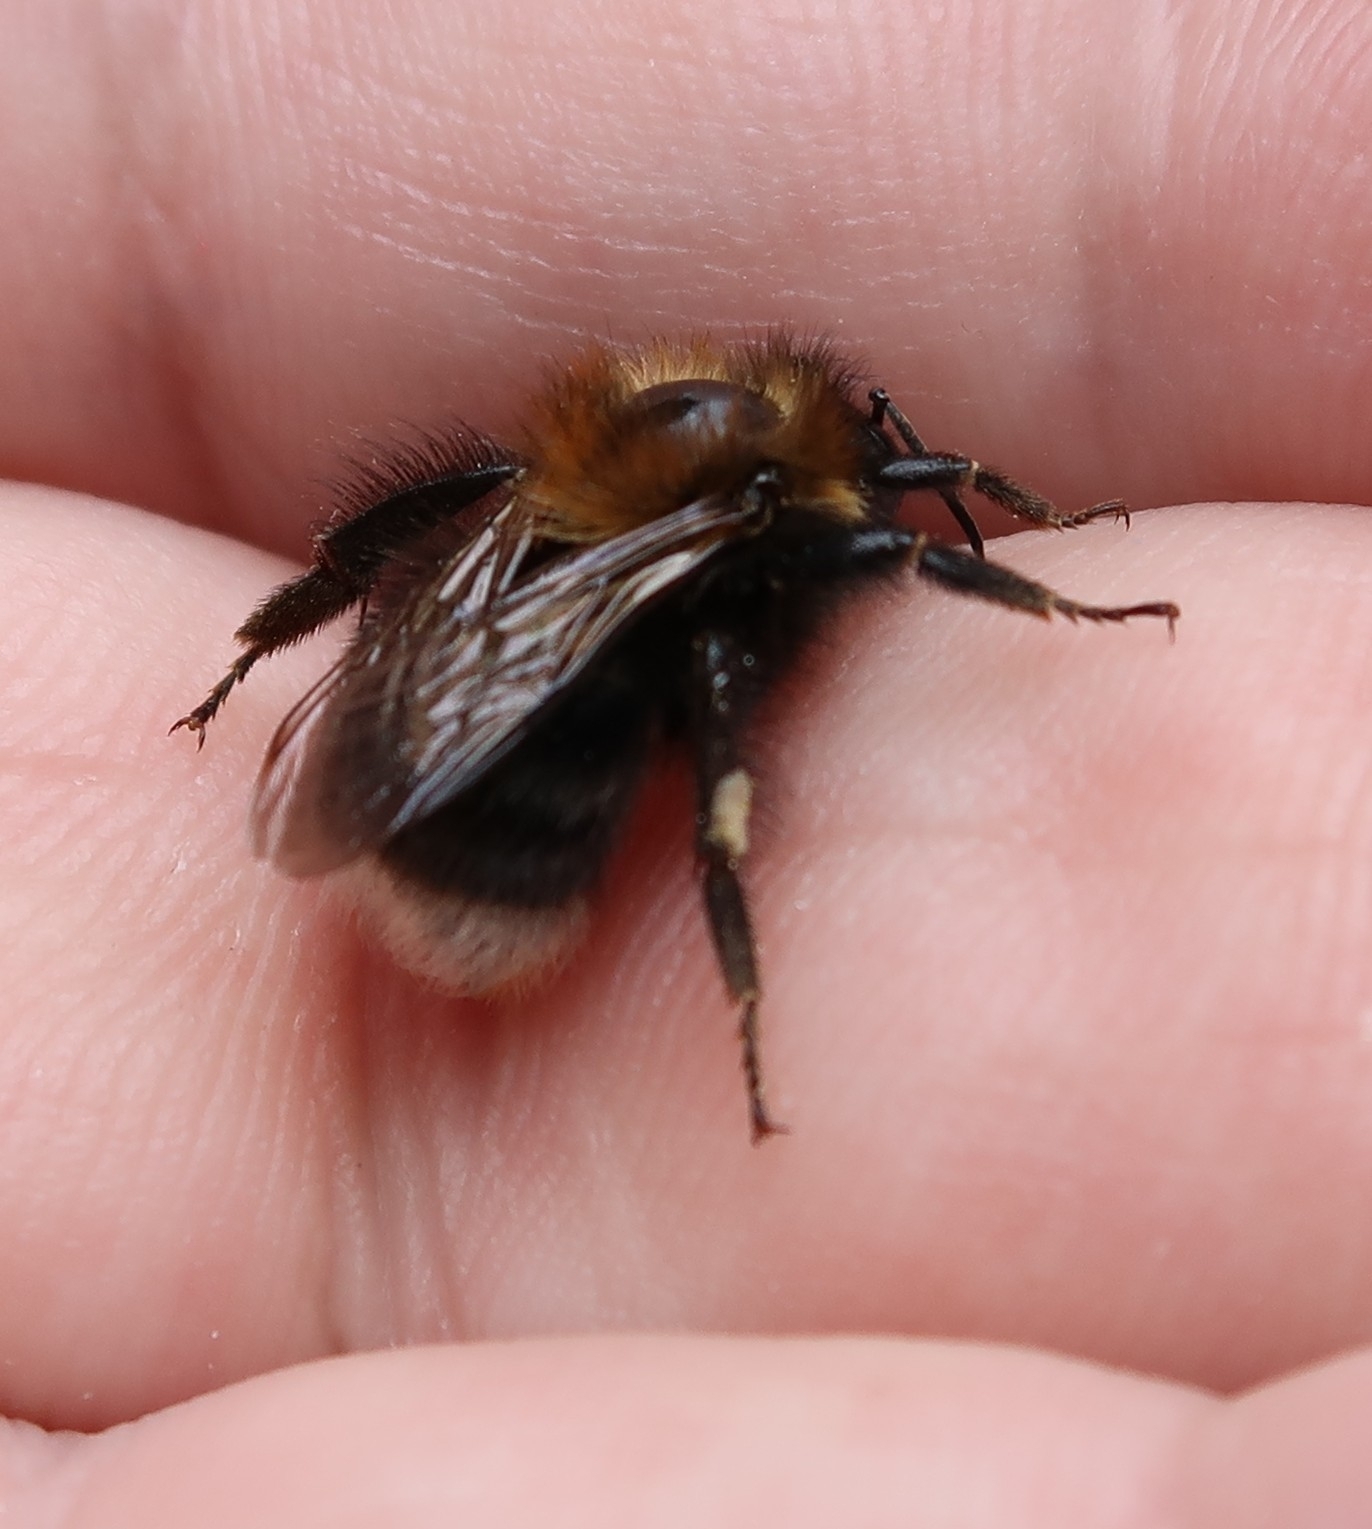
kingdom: Animalia
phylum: Arthropoda
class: Insecta
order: Hymenoptera
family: Apidae
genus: Bombus
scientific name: Bombus hypnorum
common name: New garden bumblebee
